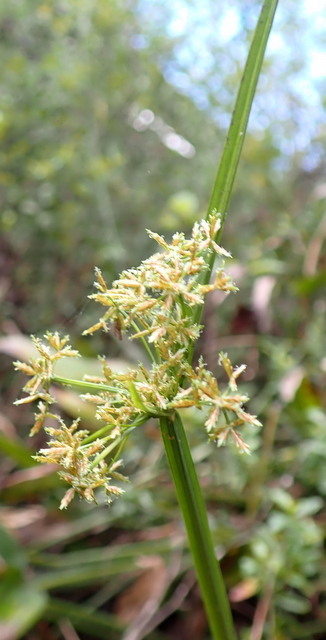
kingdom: Plantae
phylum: Tracheophyta
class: Liliopsida
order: Poales
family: Cyperaceae
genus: Cyperus
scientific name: Cyperus haspan
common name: Haspan flatsedge
